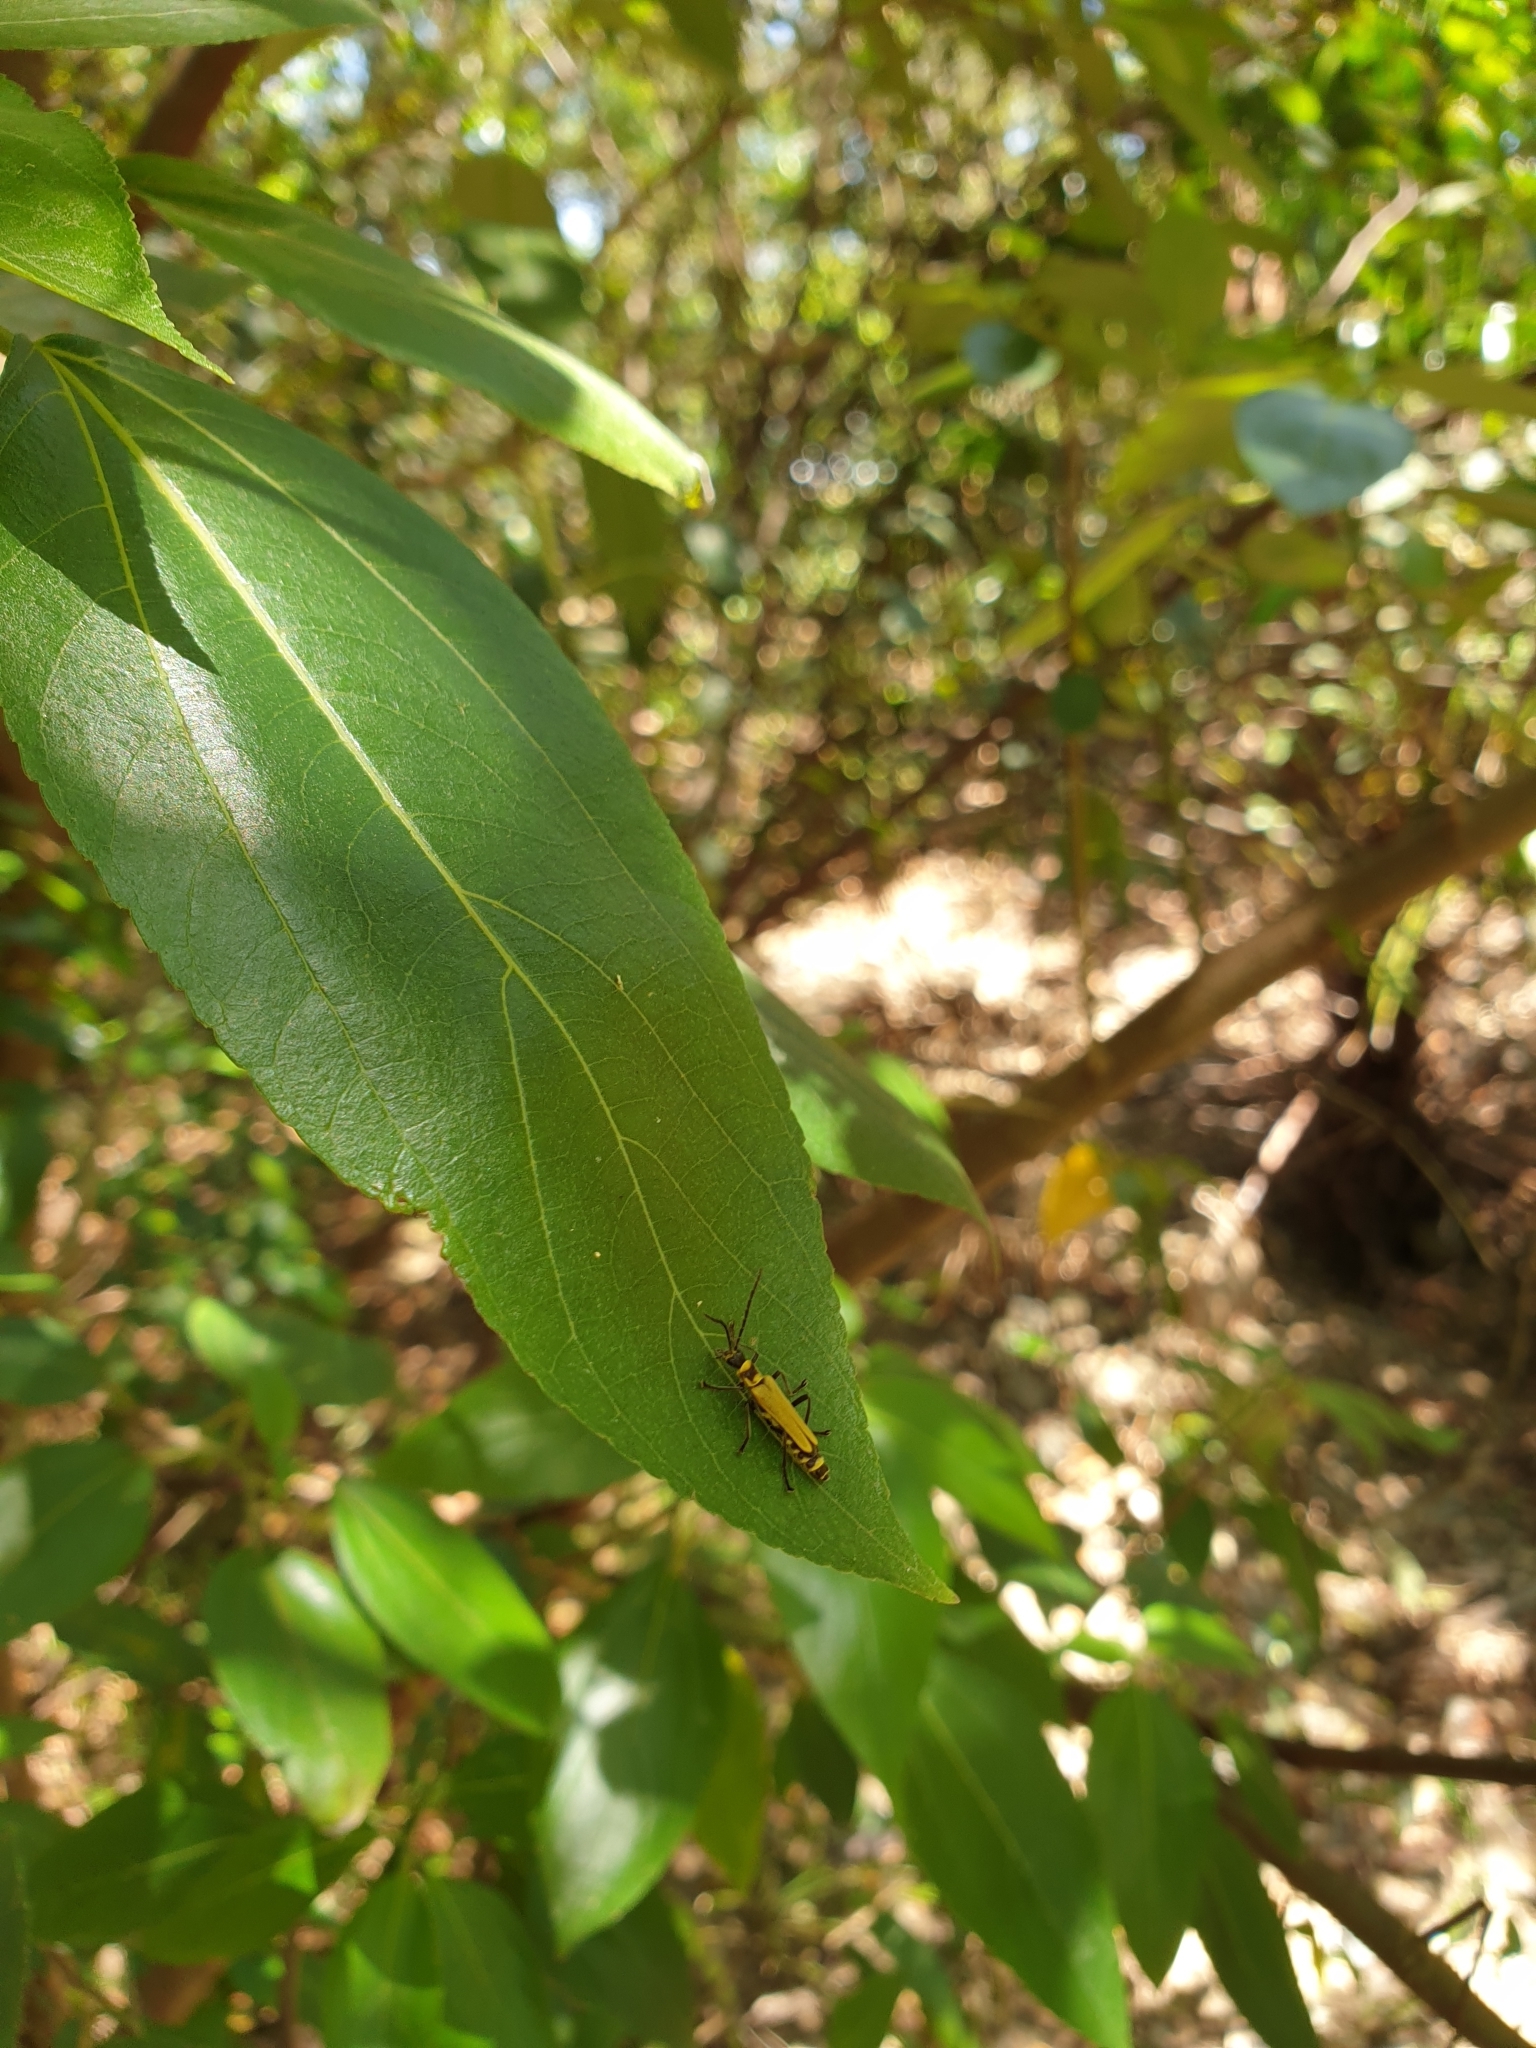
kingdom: Animalia
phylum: Arthropoda
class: Insecta
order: Coleoptera
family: Cantharidae
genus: Chauliognathus
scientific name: Chauliognathus
